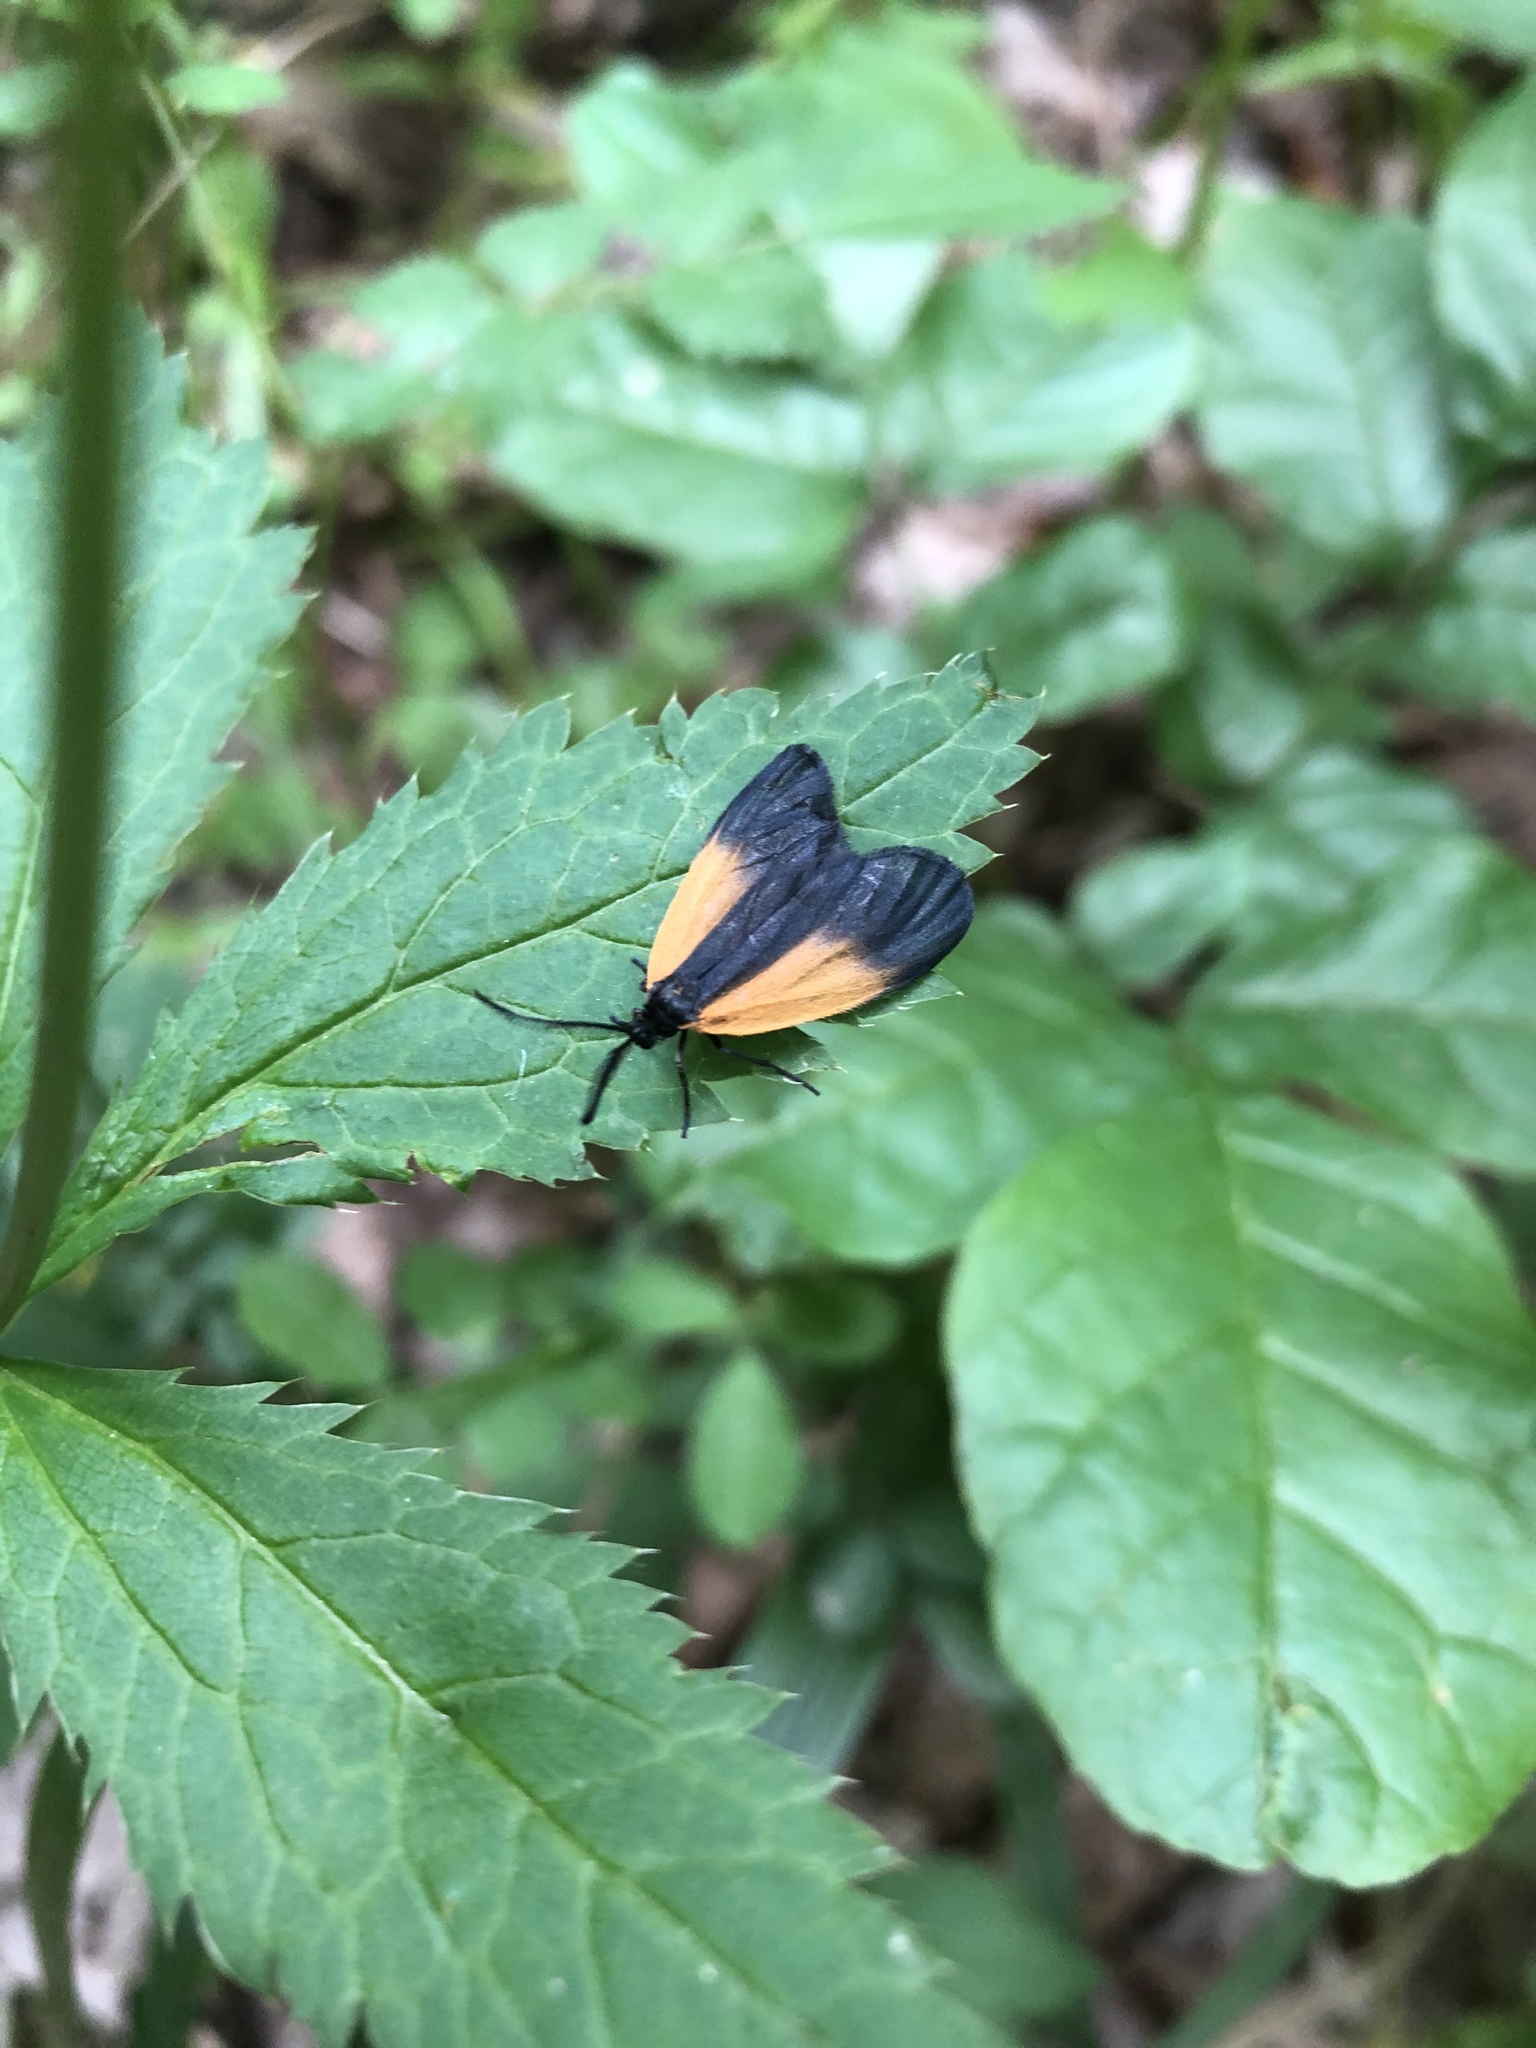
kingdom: Animalia
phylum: Arthropoda
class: Insecta
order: Lepidoptera
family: Zygaenidae
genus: Malthaca
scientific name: Malthaca dimidiata
